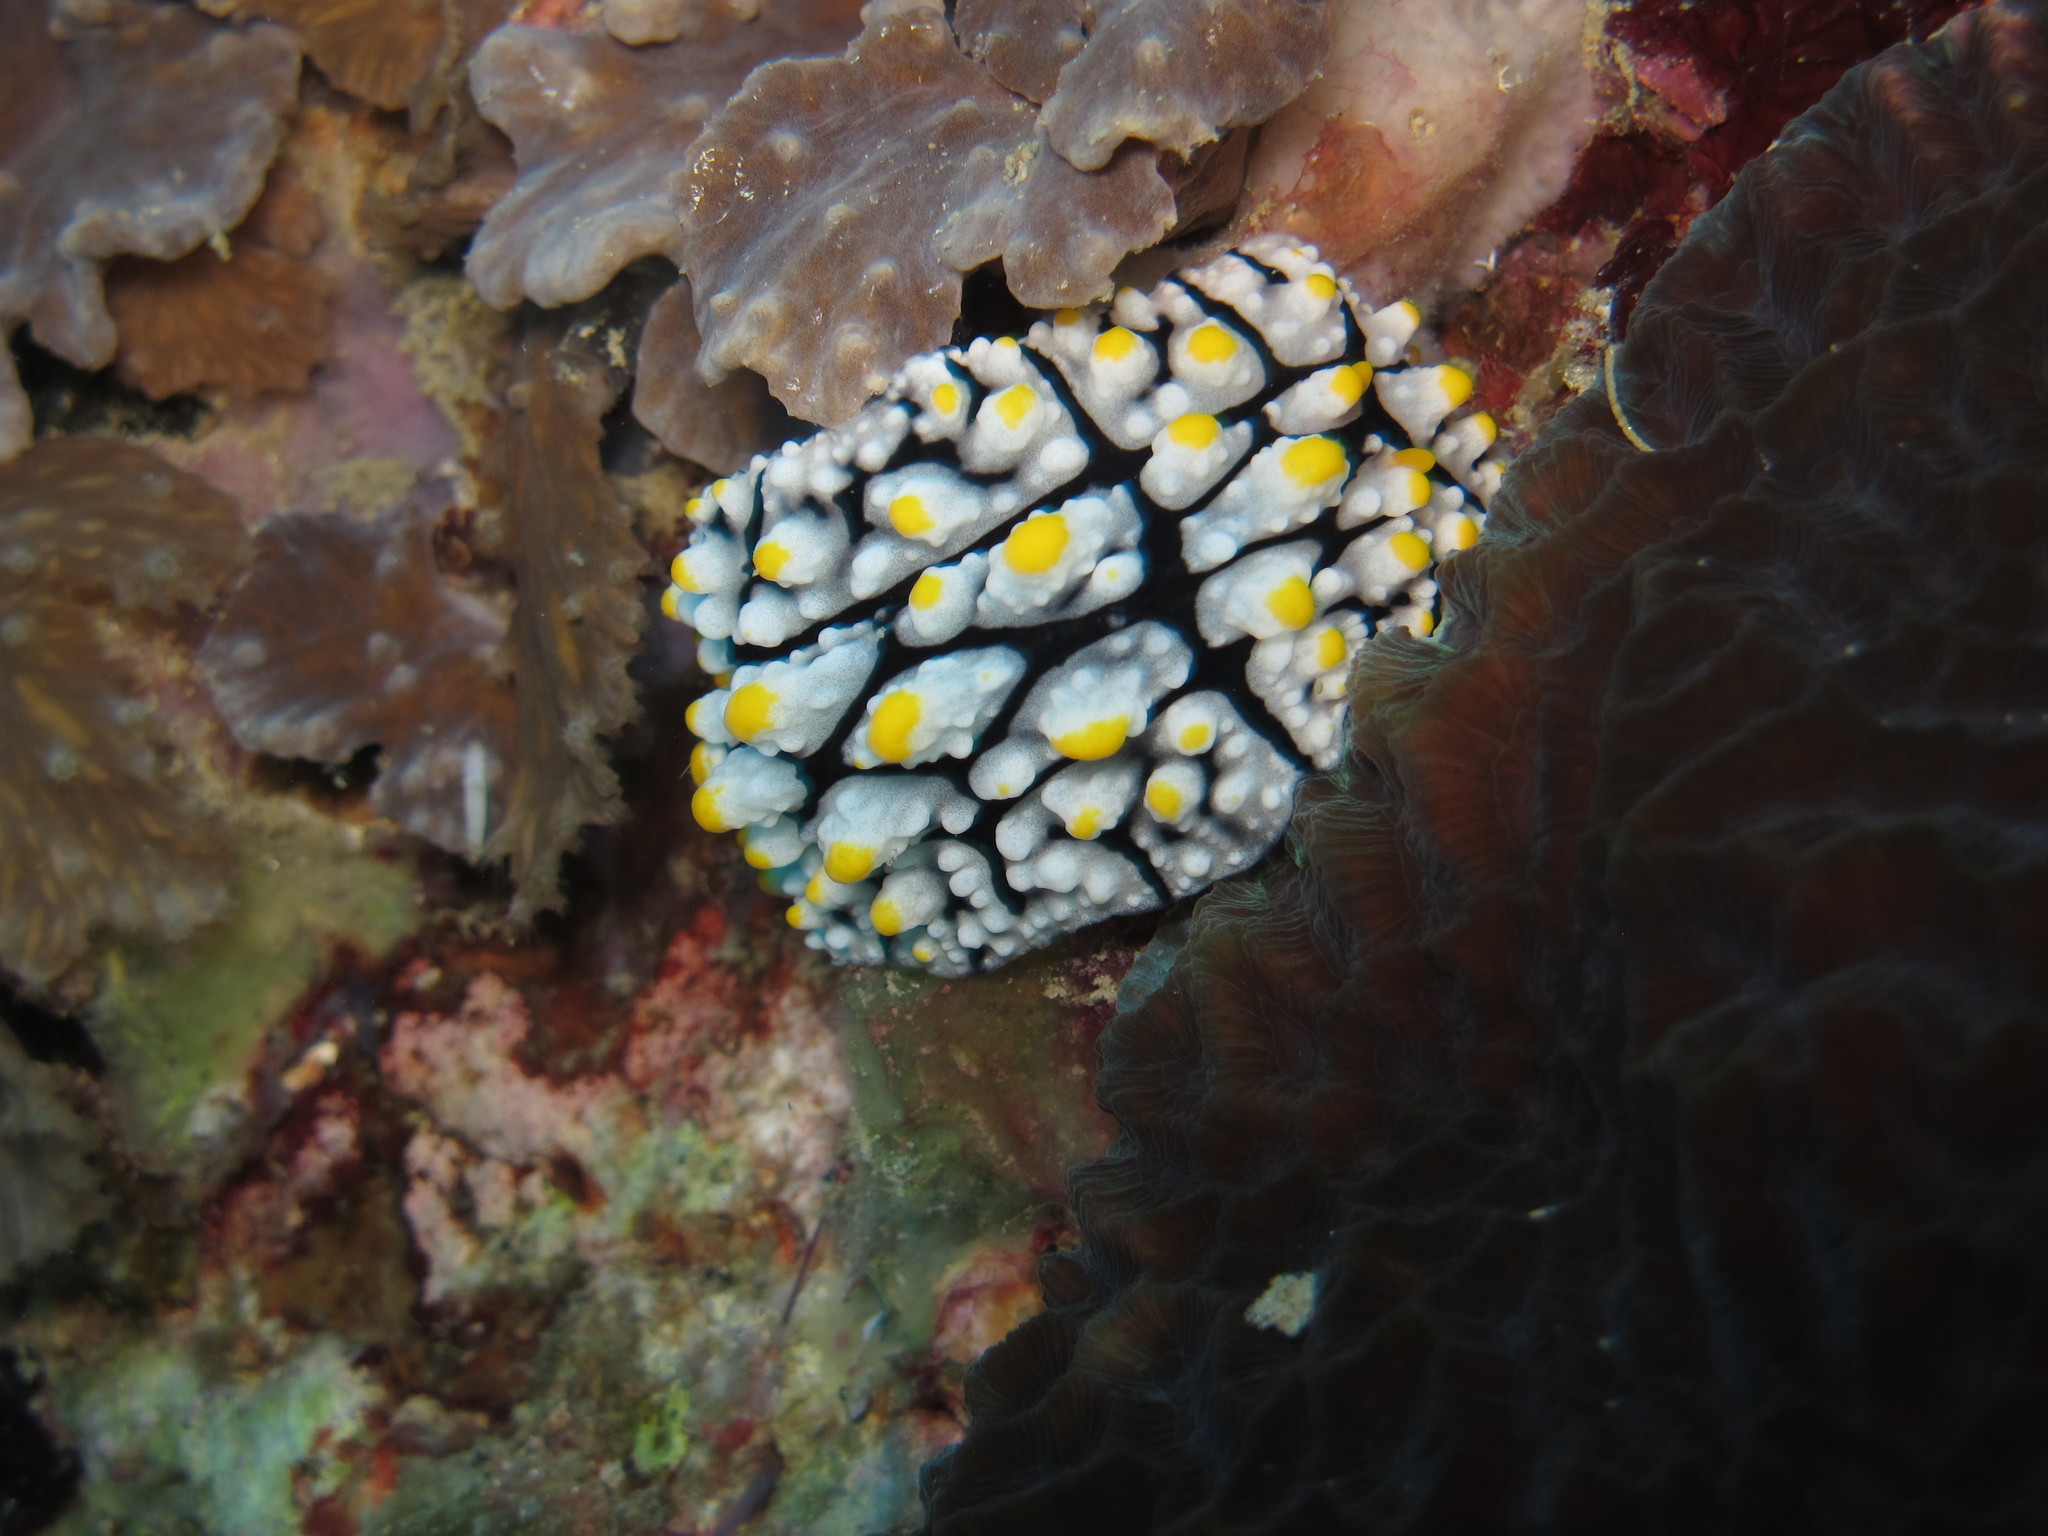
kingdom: Animalia
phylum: Mollusca
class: Gastropoda
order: Nudibranchia
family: Phyllidiidae
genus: Phyllidia
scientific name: Phyllidia elegans
